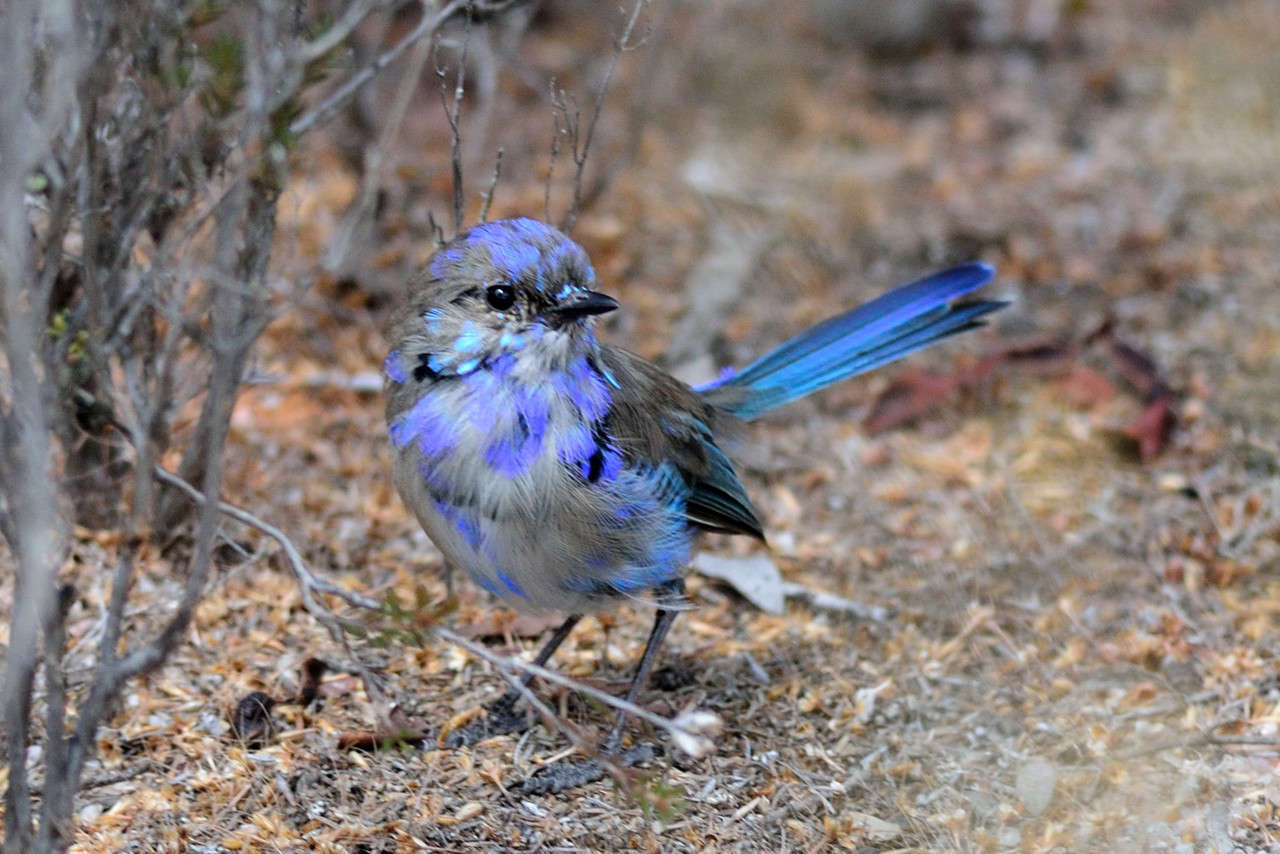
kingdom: Animalia
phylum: Chordata
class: Aves
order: Passeriformes
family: Maluridae
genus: Malurus
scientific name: Malurus splendens
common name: Splendid fairywren
